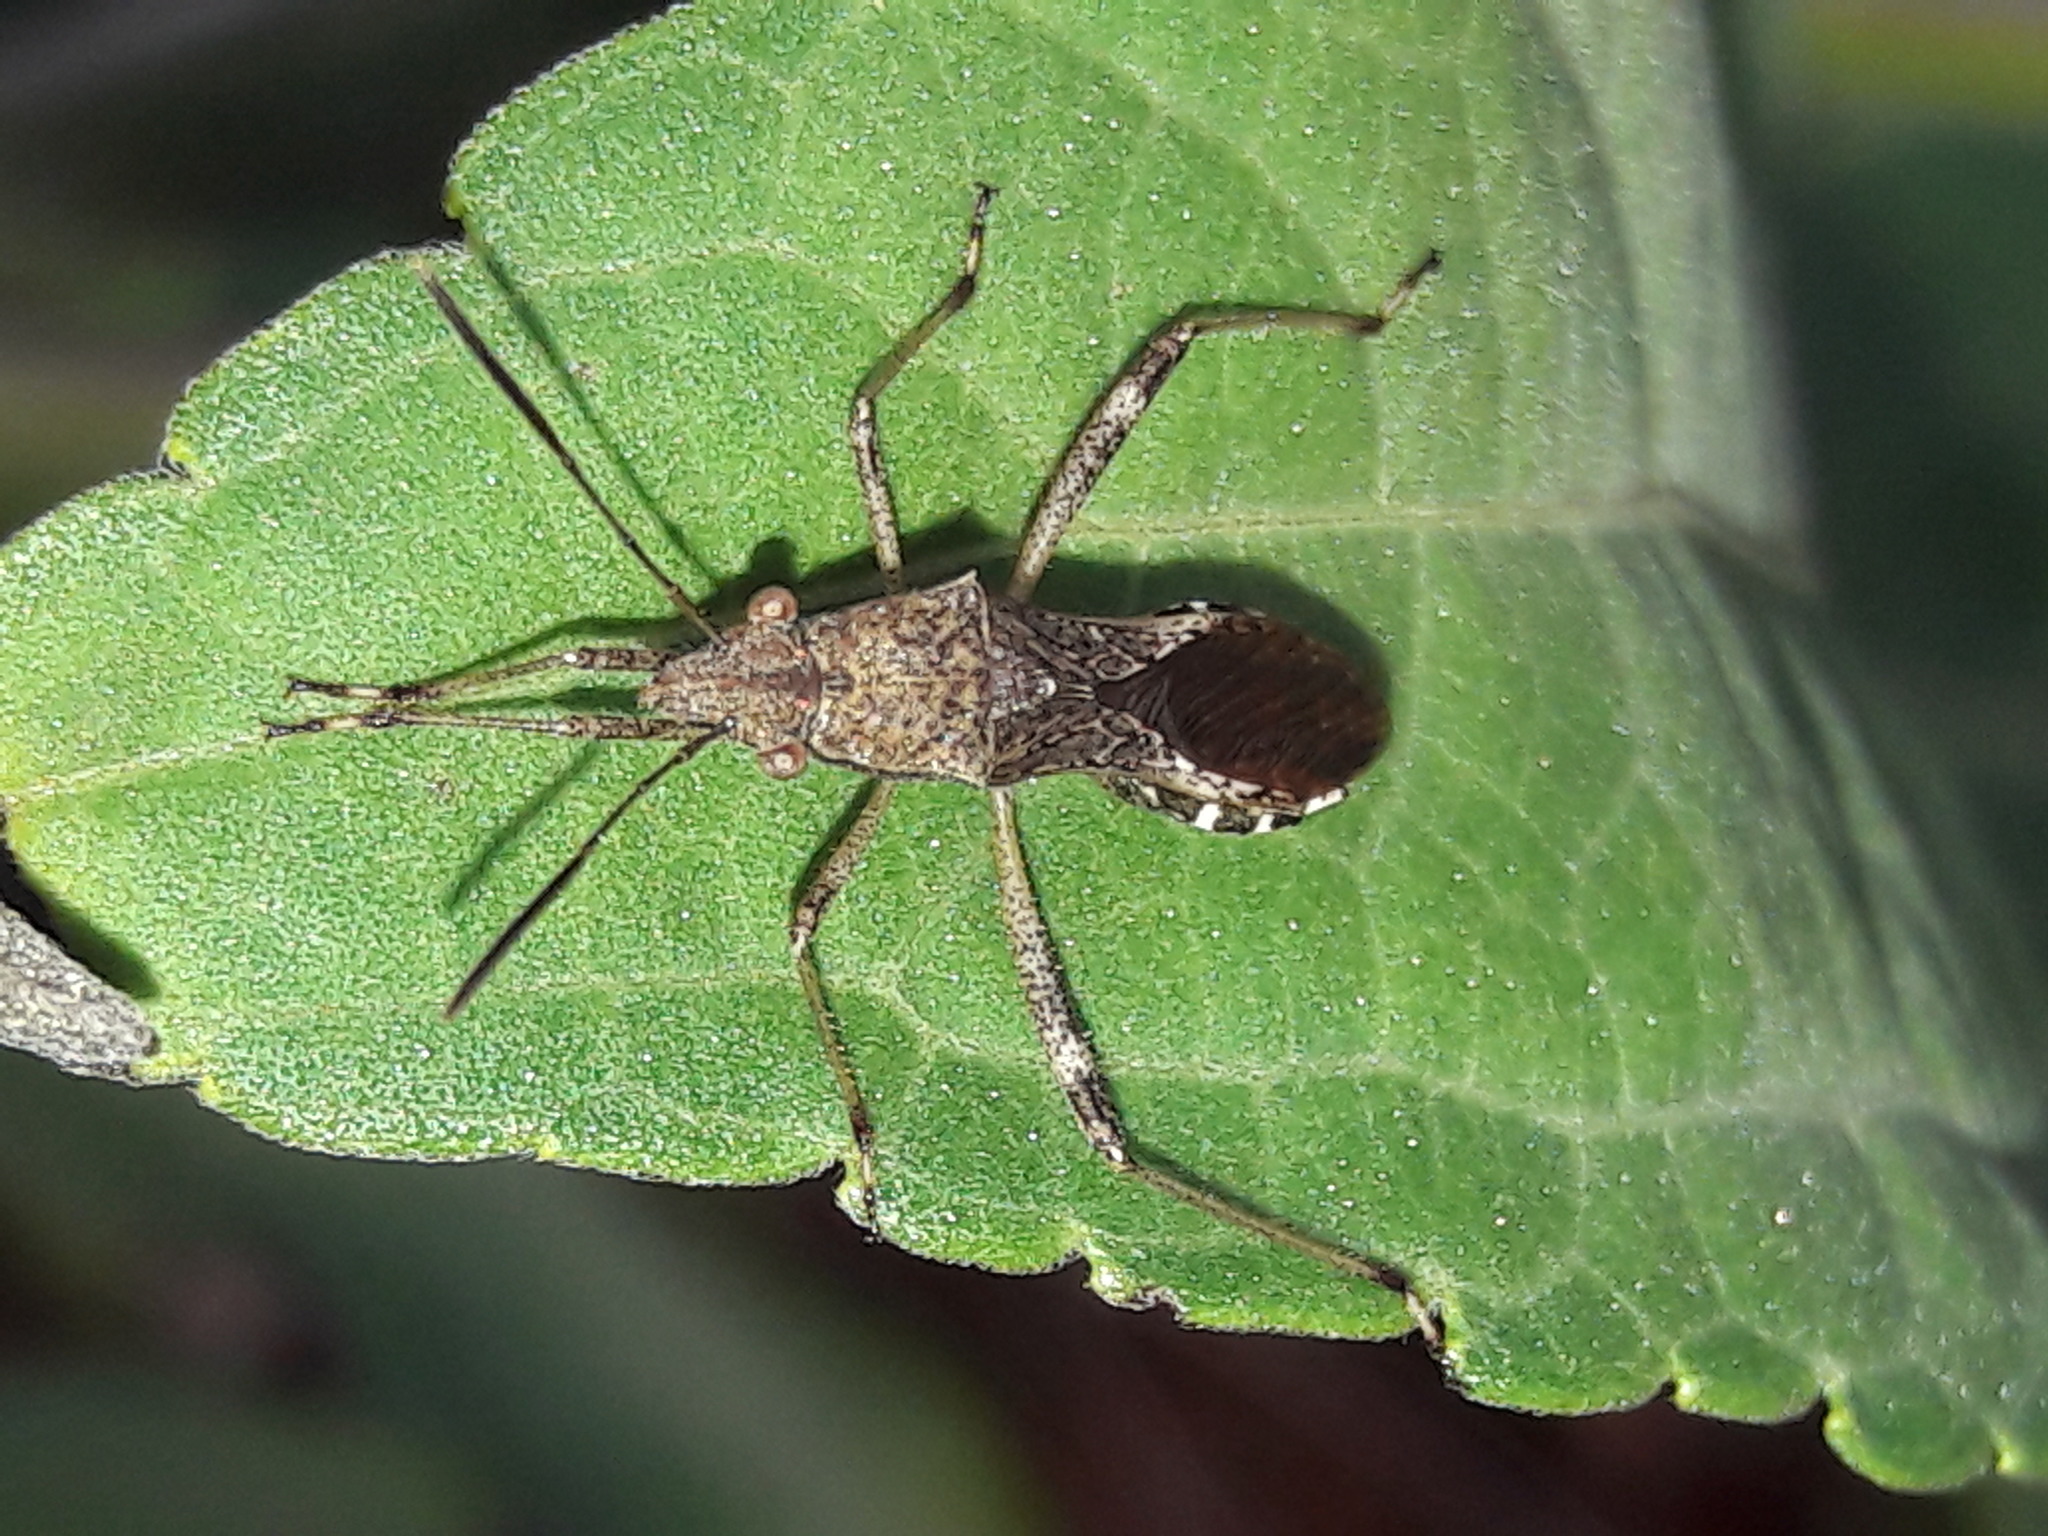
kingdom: Animalia
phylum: Arthropoda
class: Insecta
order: Hemiptera
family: Alydidae
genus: Neomegalotomus
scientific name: Neomegalotomus parvus
